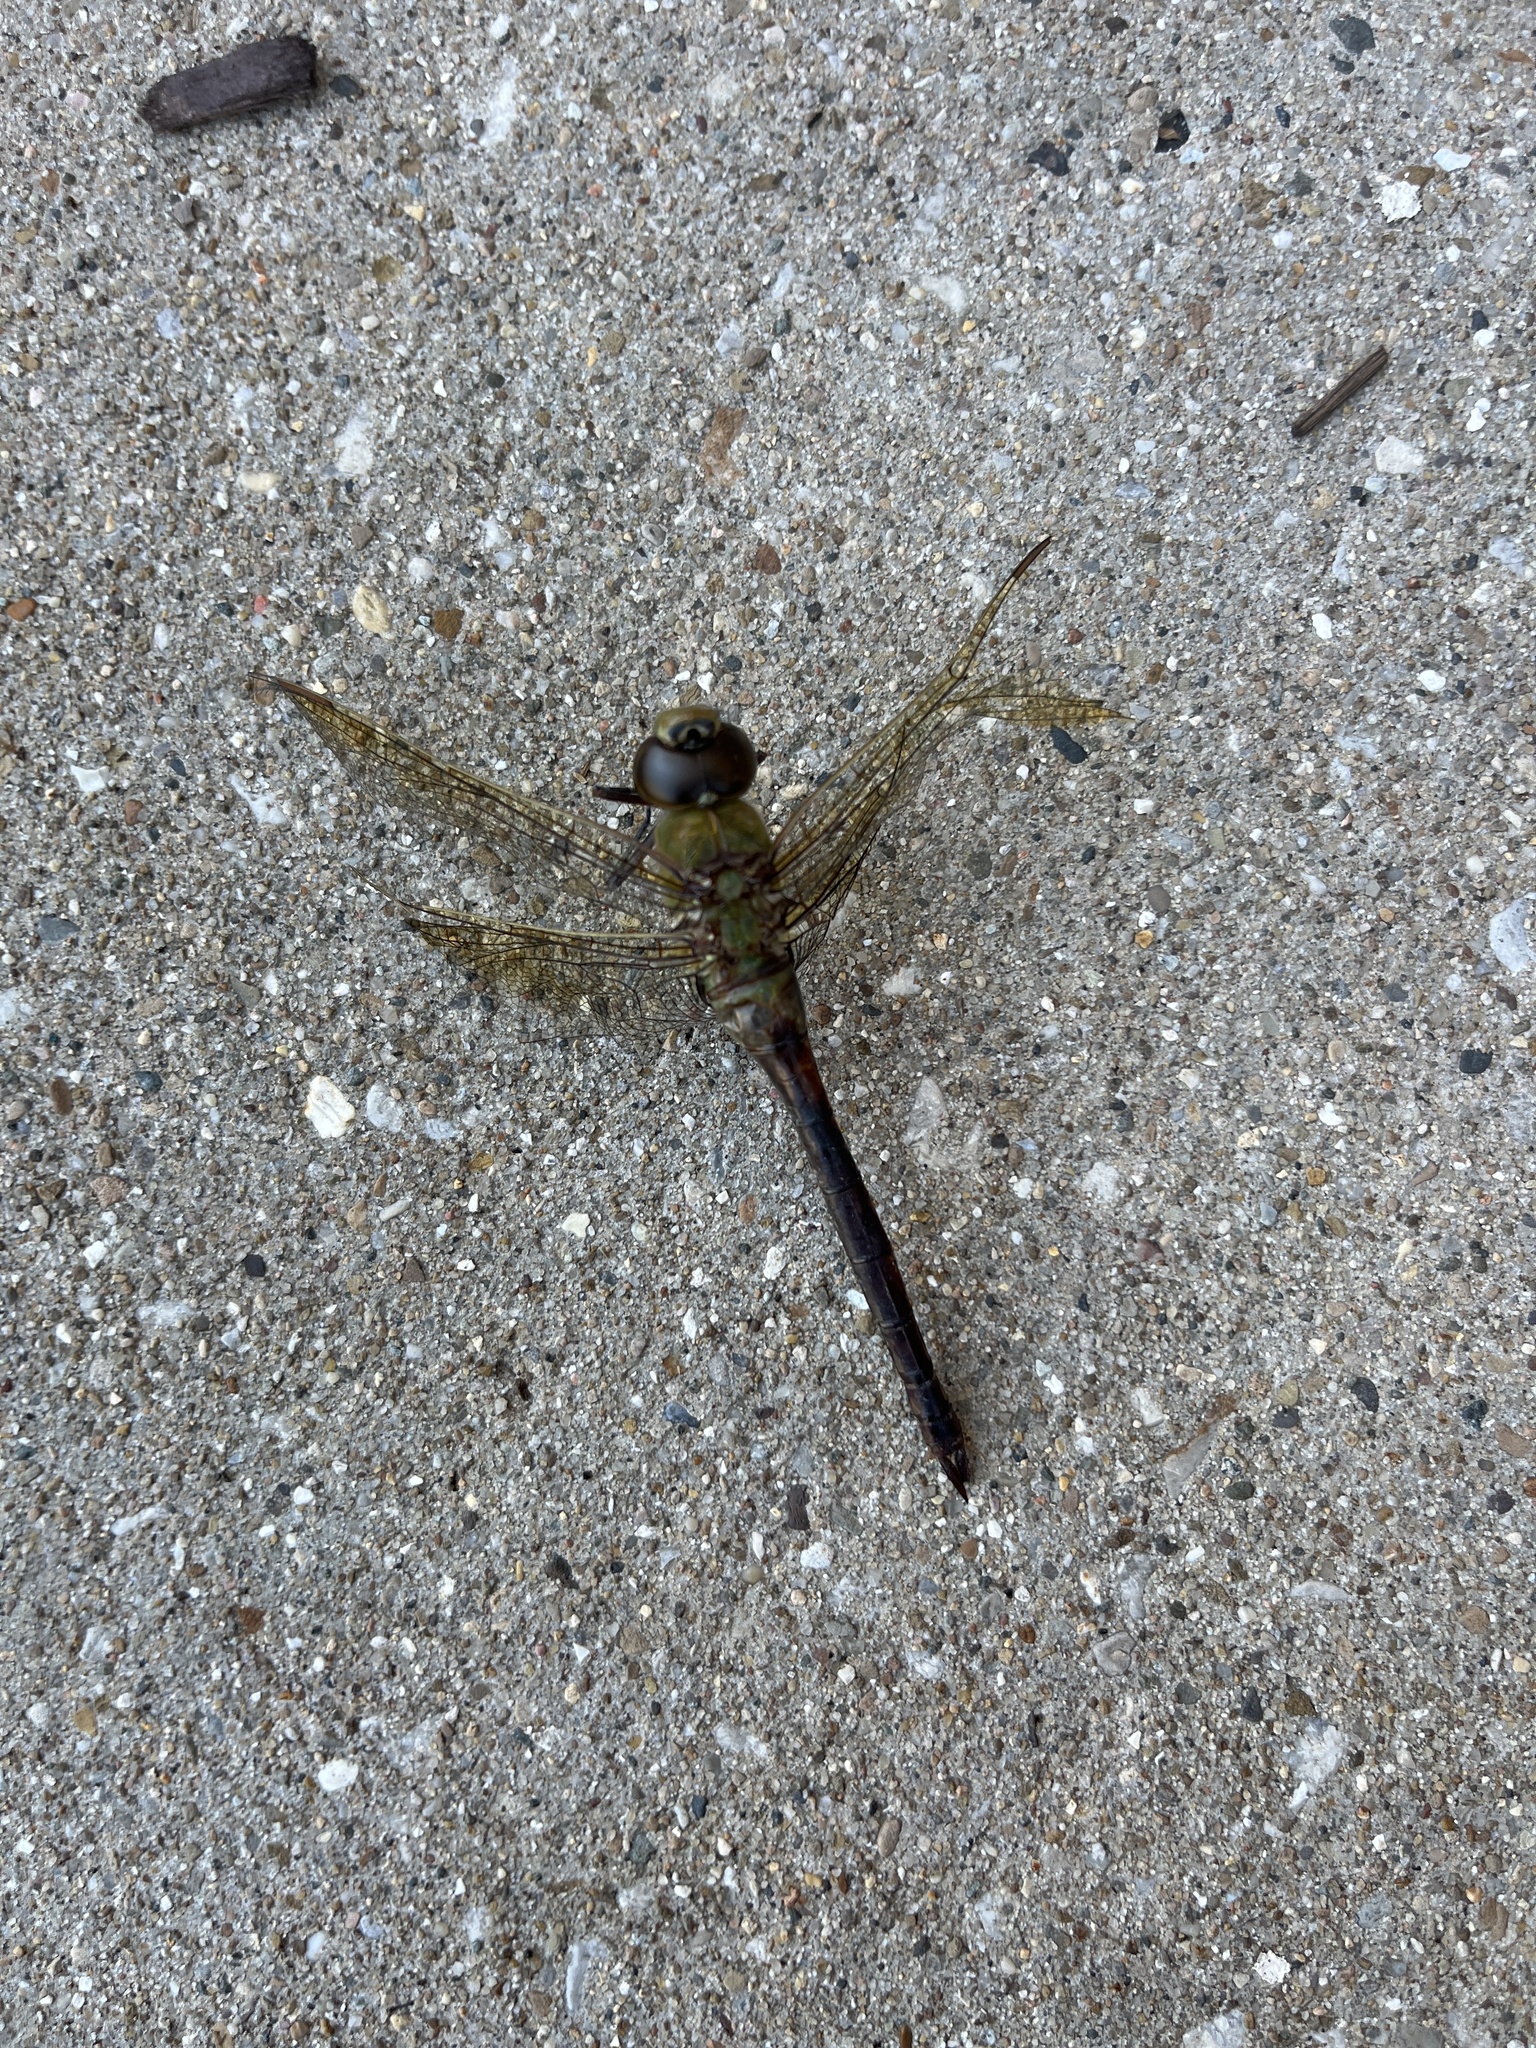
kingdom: Animalia
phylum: Arthropoda
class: Insecta
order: Odonata
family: Aeshnidae
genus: Anax
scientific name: Anax junius
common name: Common green darner
